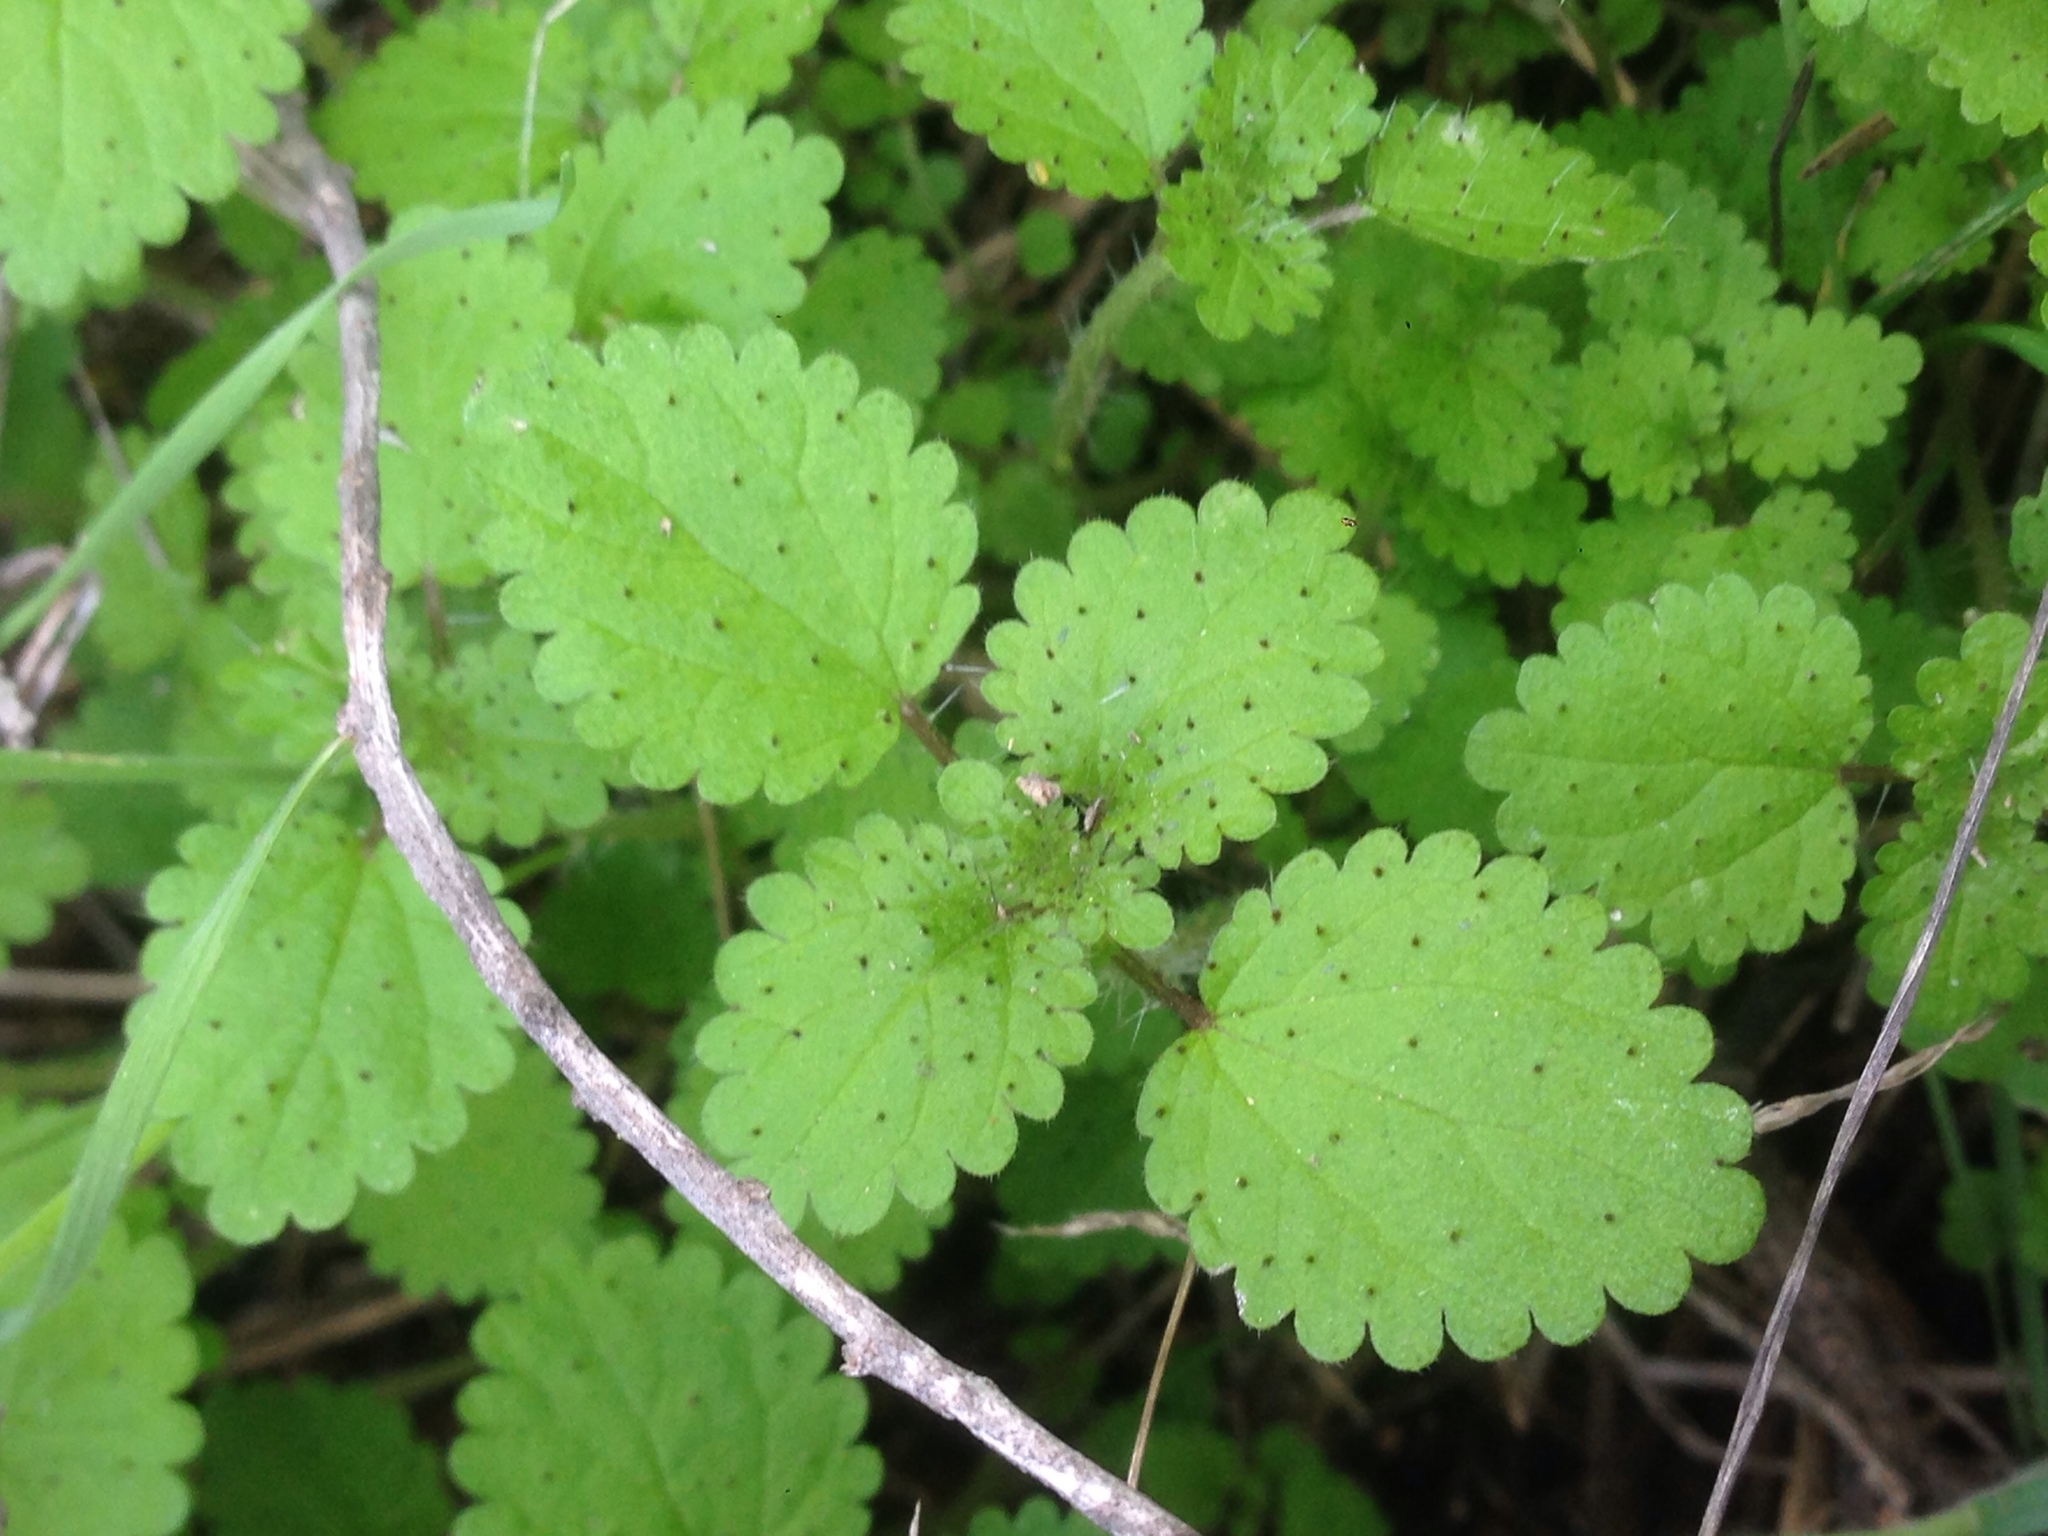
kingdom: Plantae
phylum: Tracheophyta
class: Magnoliopsida
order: Rosales
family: Urticaceae
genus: Hesperocnide
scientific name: Hesperocnide tenella
